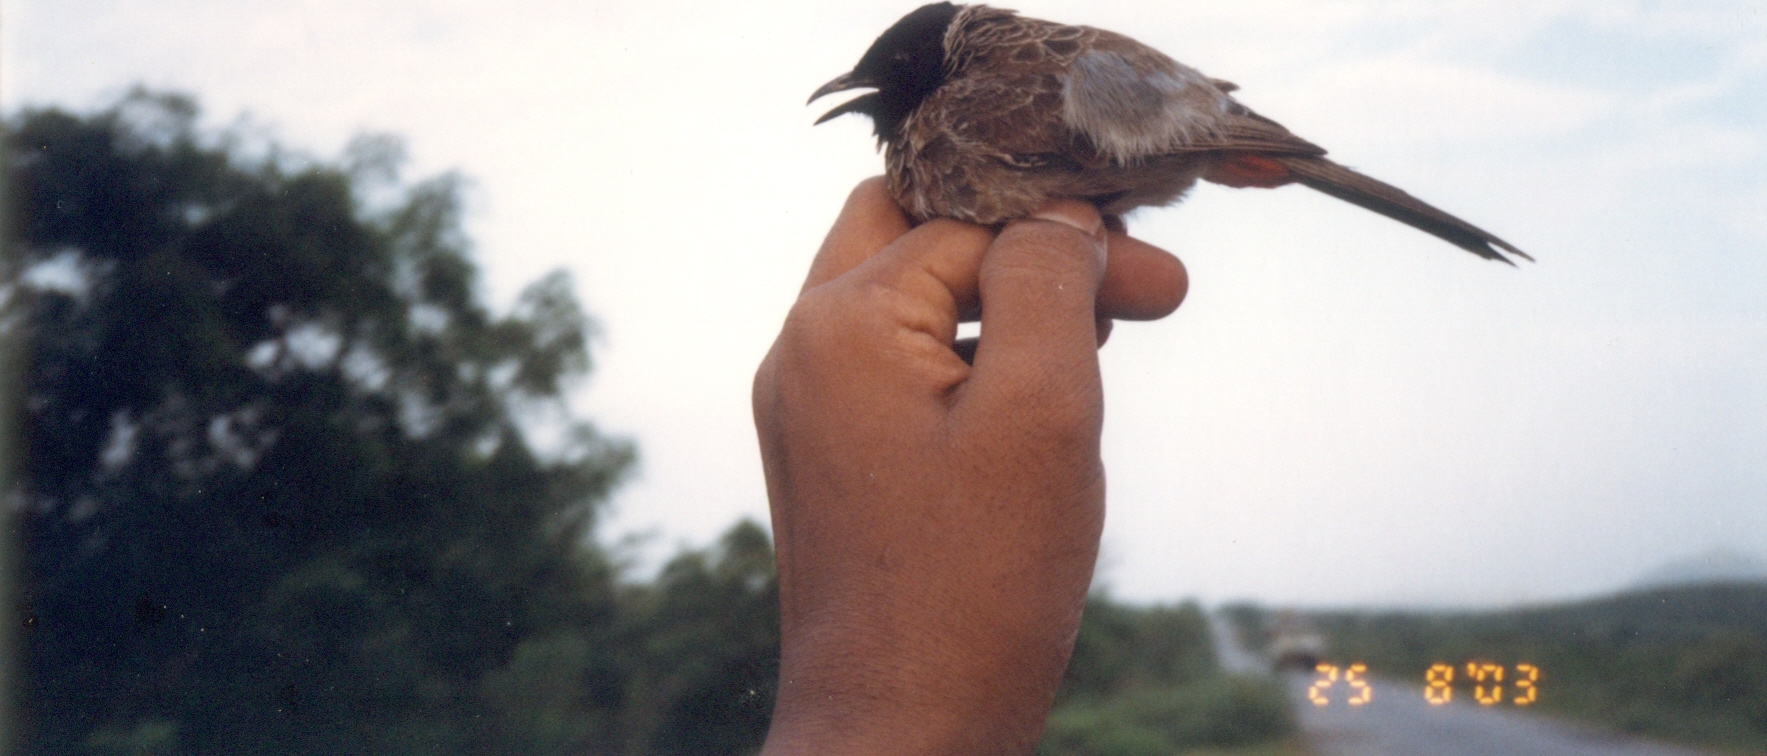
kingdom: Animalia
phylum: Chordata
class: Aves
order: Passeriformes
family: Pycnonotidae
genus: Pycnonotus
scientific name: Pycnonotus cafer
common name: Red-vented bulbul
